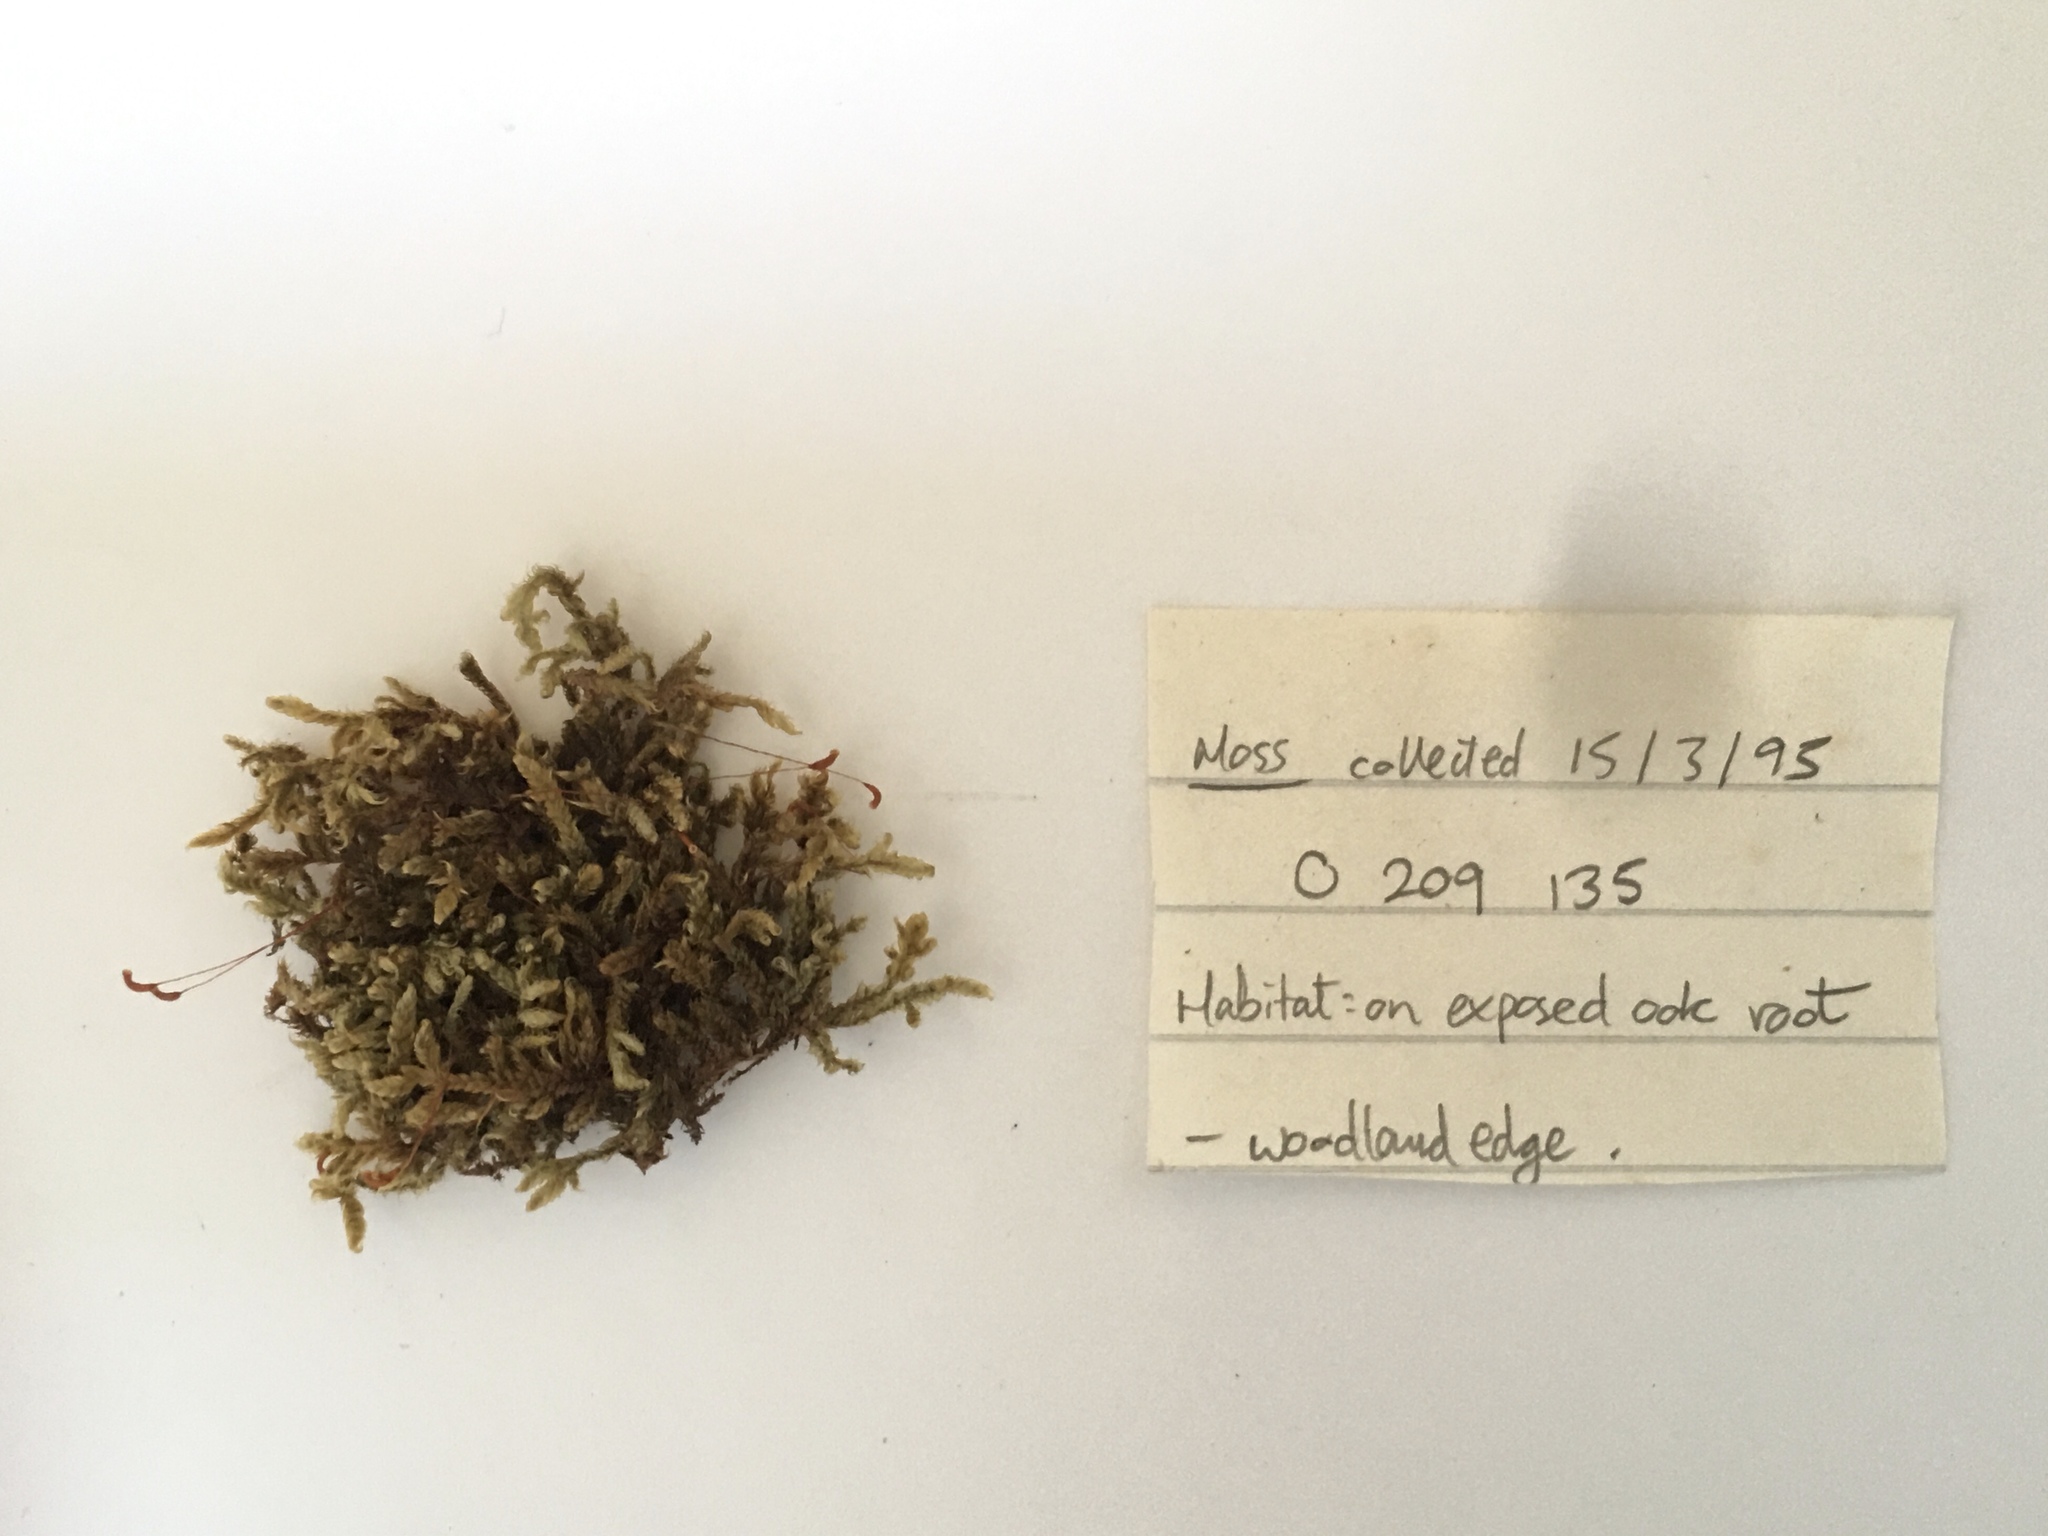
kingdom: Plantae
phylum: Bryophyta
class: Bryopsida
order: Hypnales
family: Hypnaceae
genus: Hypnum
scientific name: Hypnum cupressiforme
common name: Cypress-leaved plait-moss
